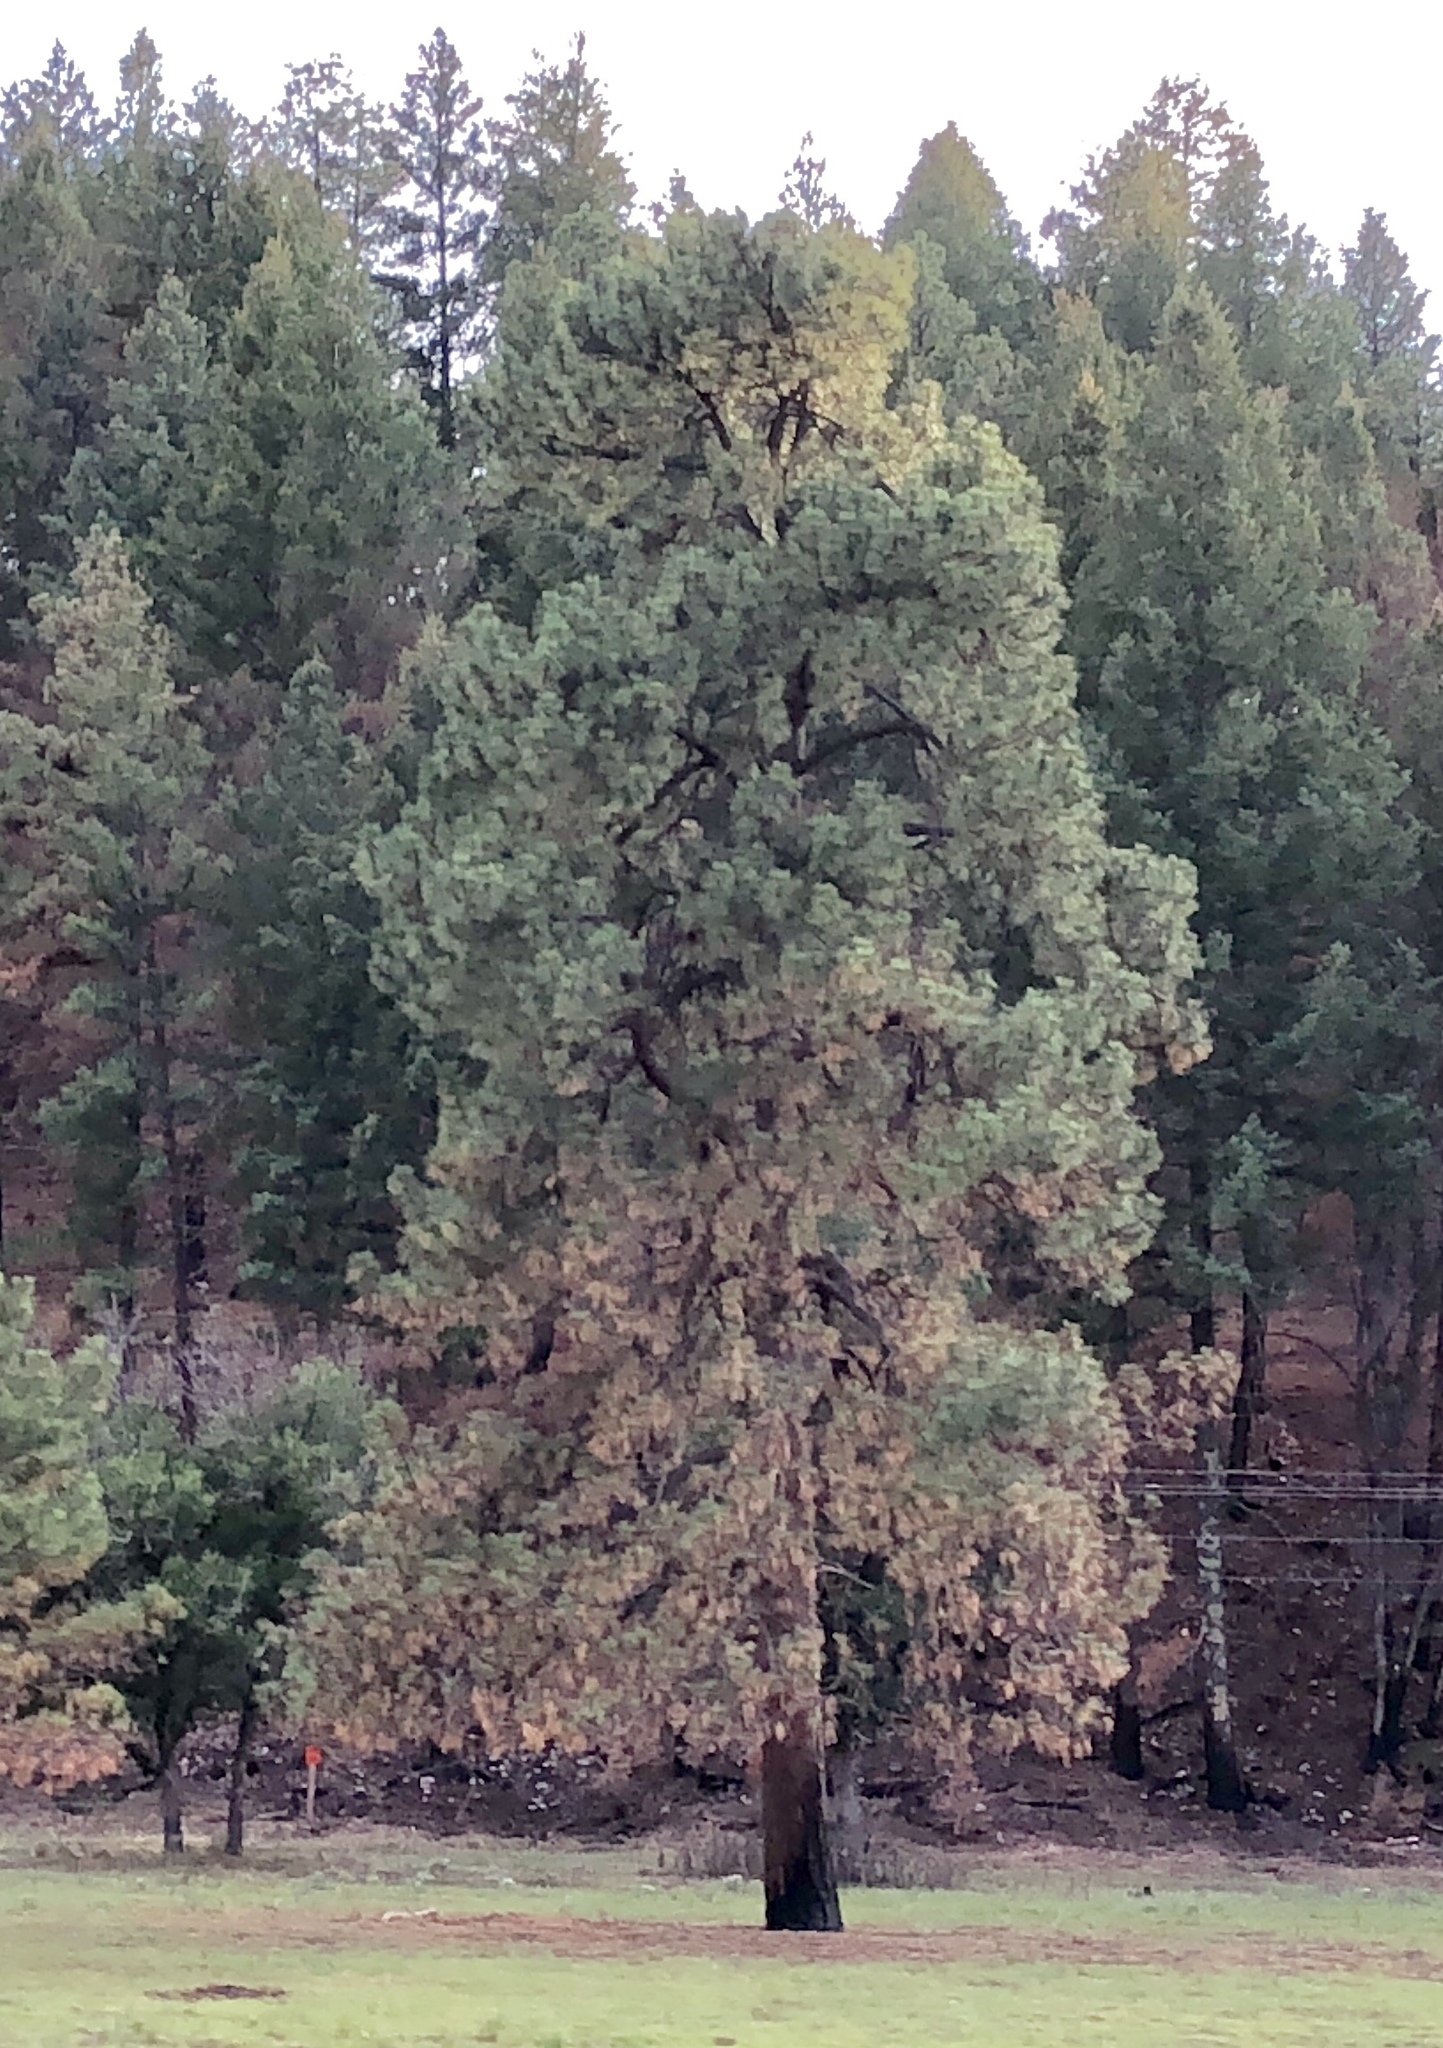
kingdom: Plantae
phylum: Tracheophyta
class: Pinopsida
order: Pinales
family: Pinaceae
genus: Pinus
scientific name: Pinus ponderosa
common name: Western yellow-pine
